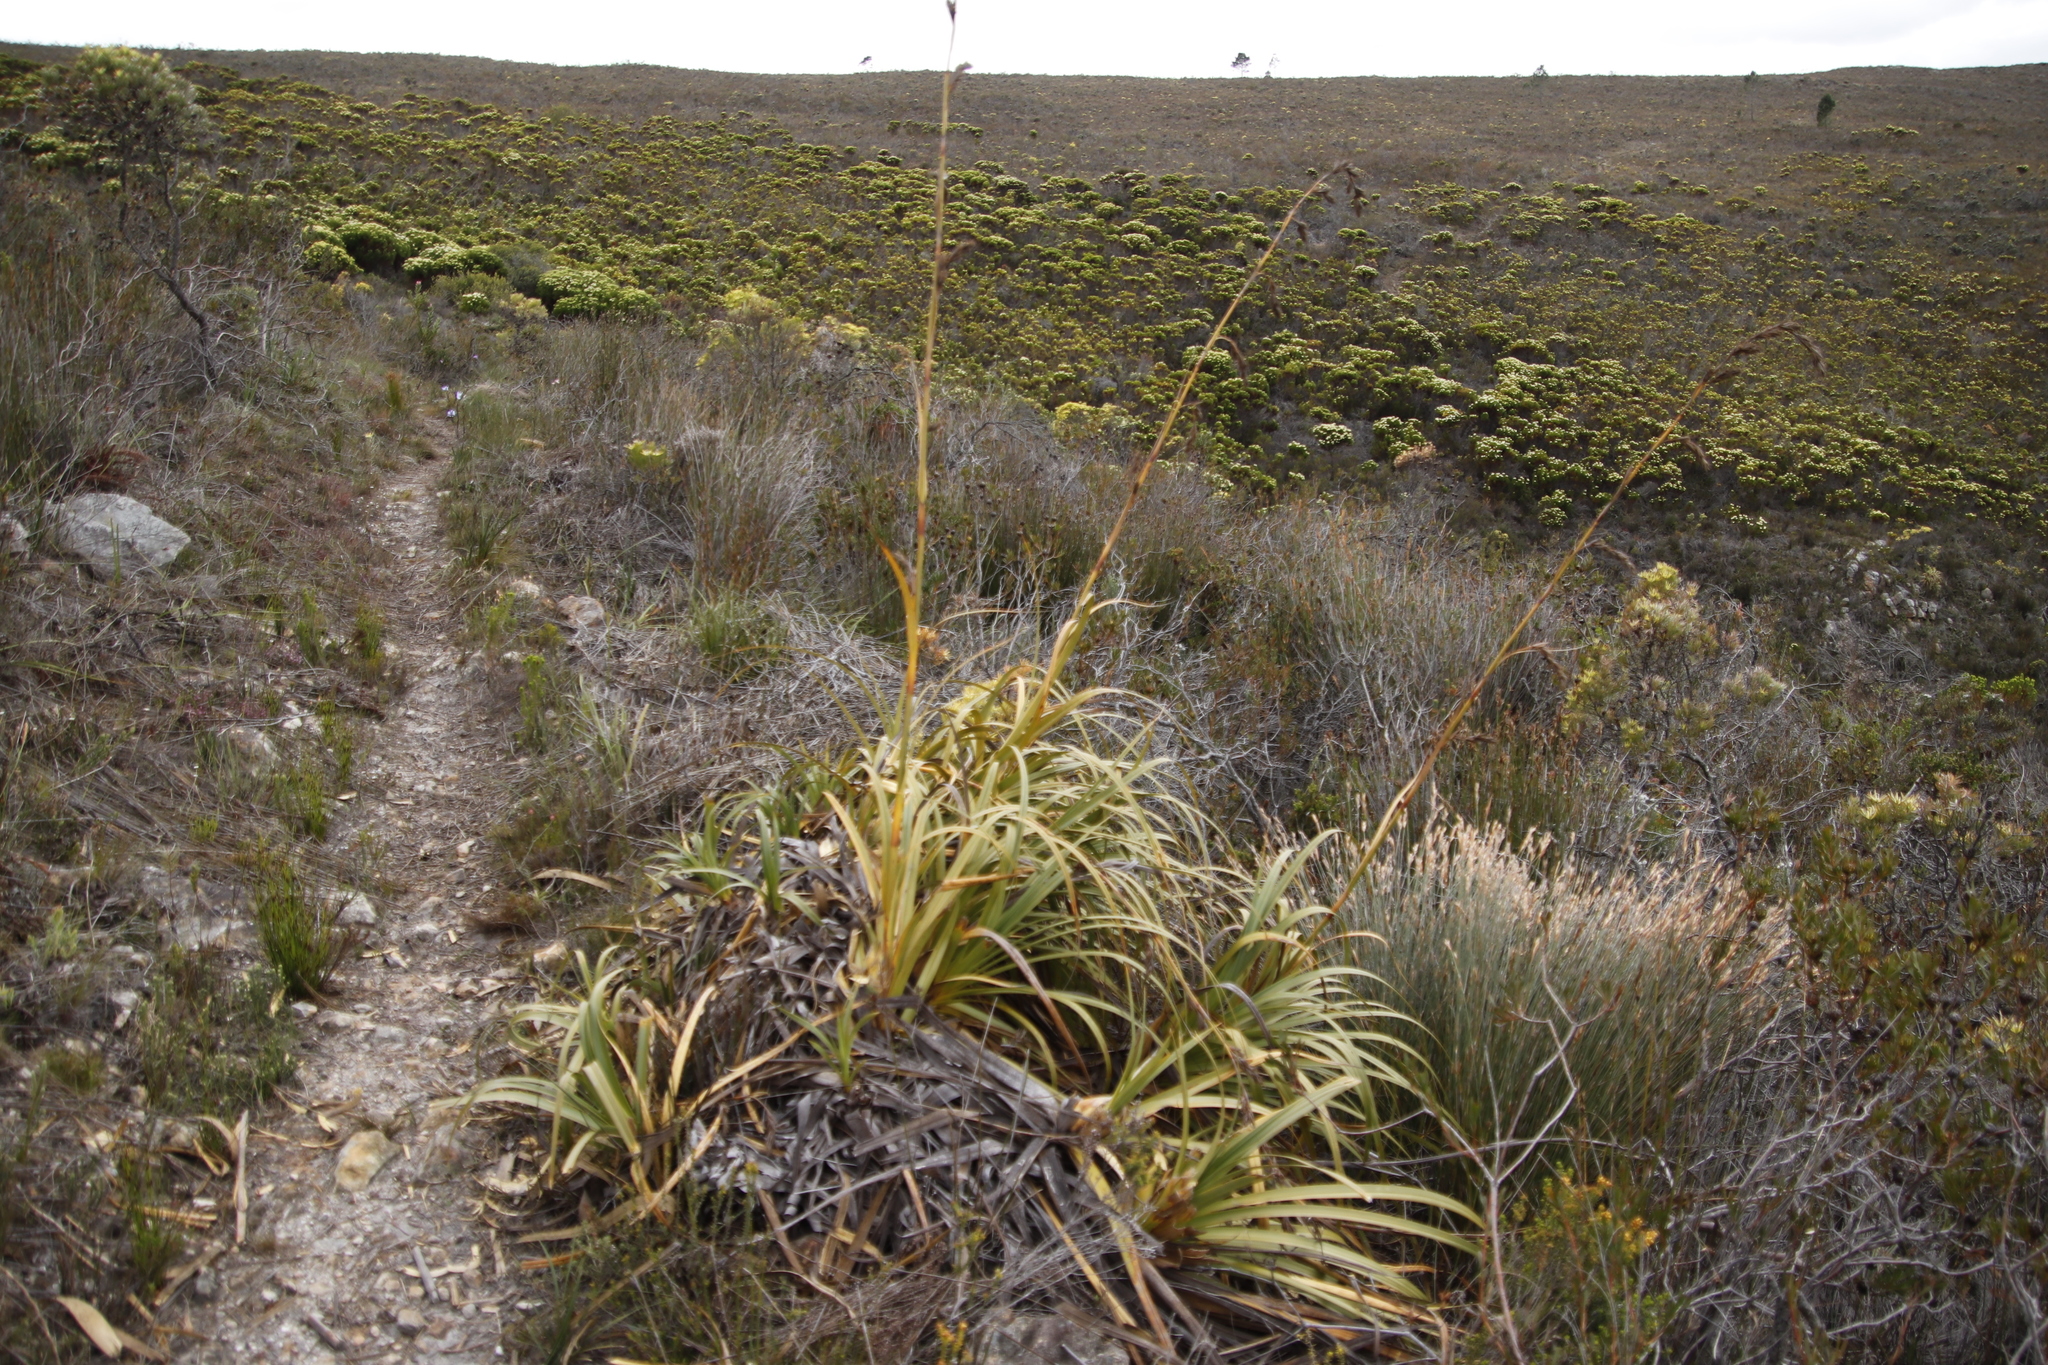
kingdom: Plantae
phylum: Tracheophyta
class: Liliopsida
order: Poales
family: Cyperaceae
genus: Tetraria
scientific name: Tetraria thermalis
